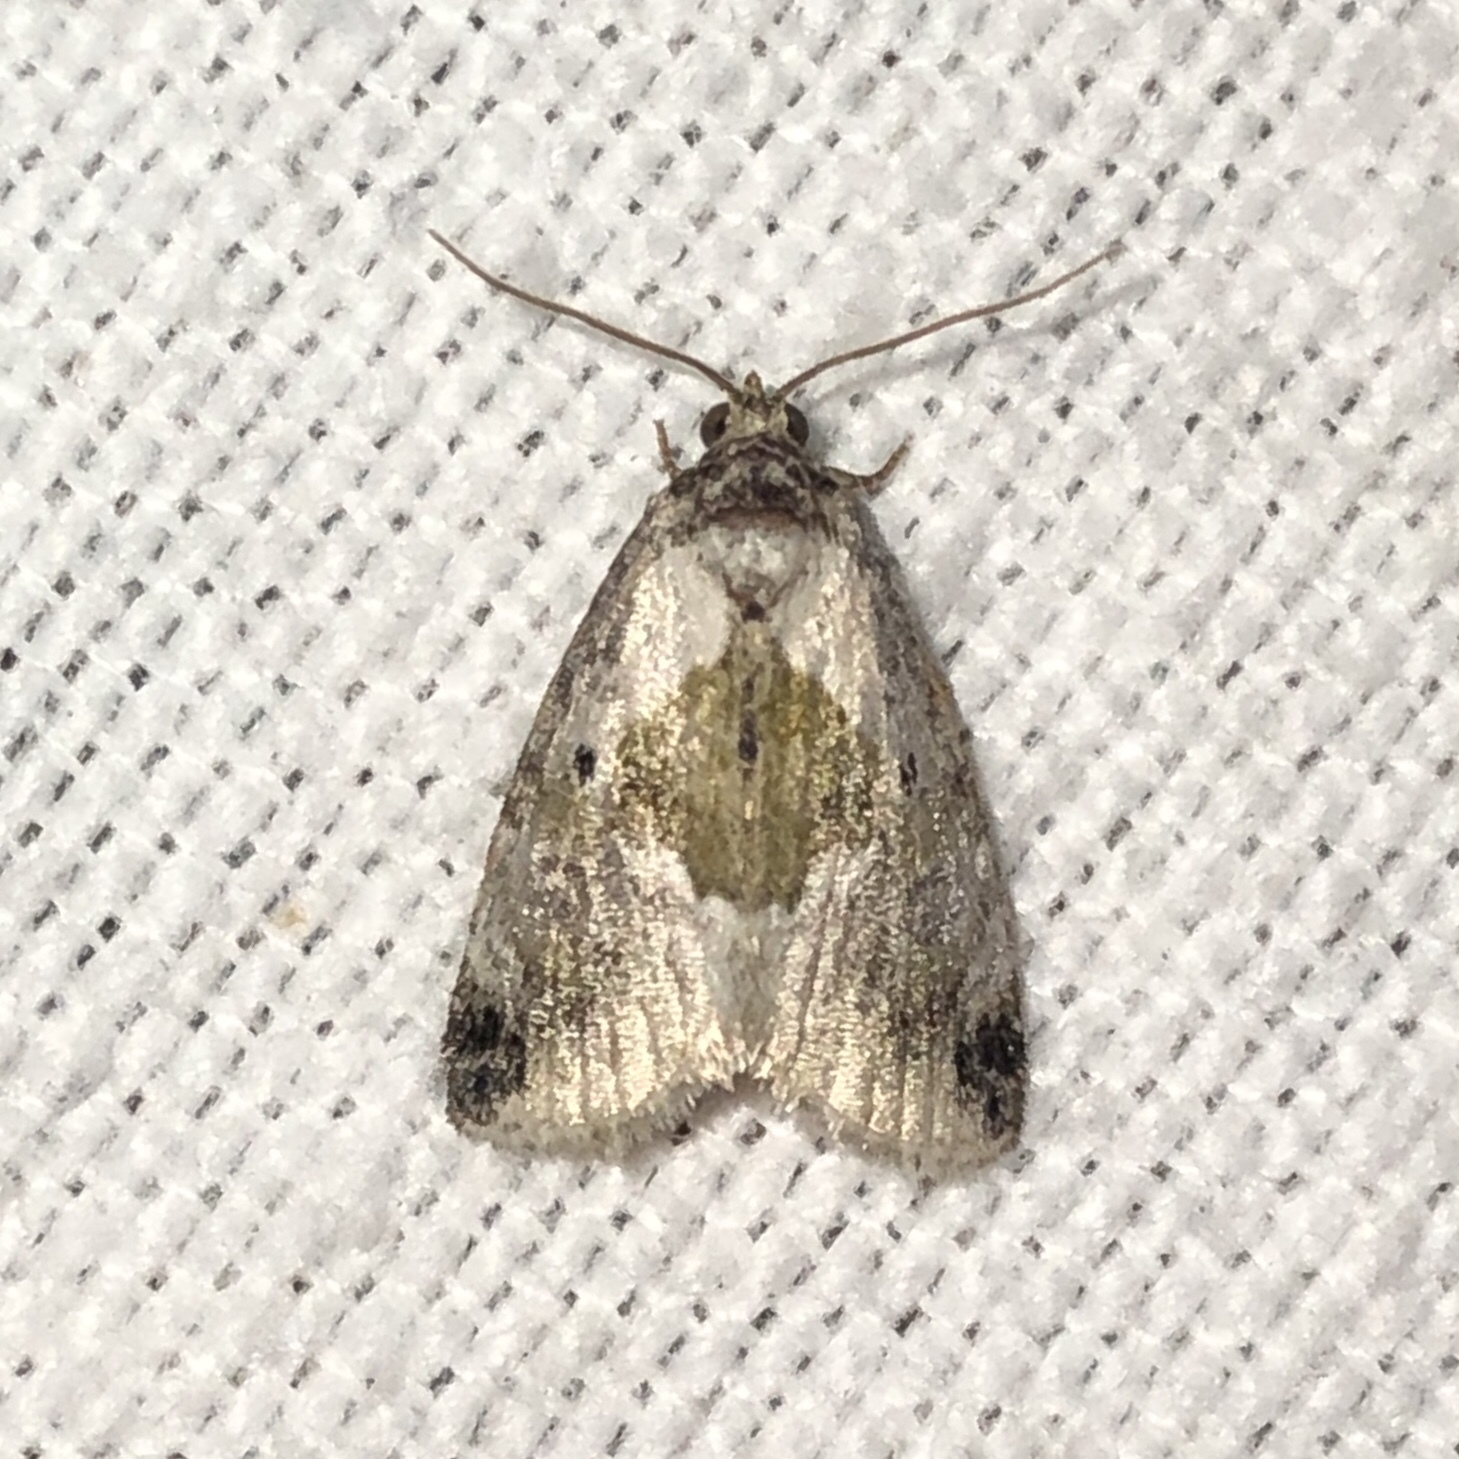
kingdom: Animalia
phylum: Arthropoda
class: Insecta
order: Lepidoptera
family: Noctuidae
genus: Maliattha
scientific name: Maliattha synochitis
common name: Black-dotted glyph
